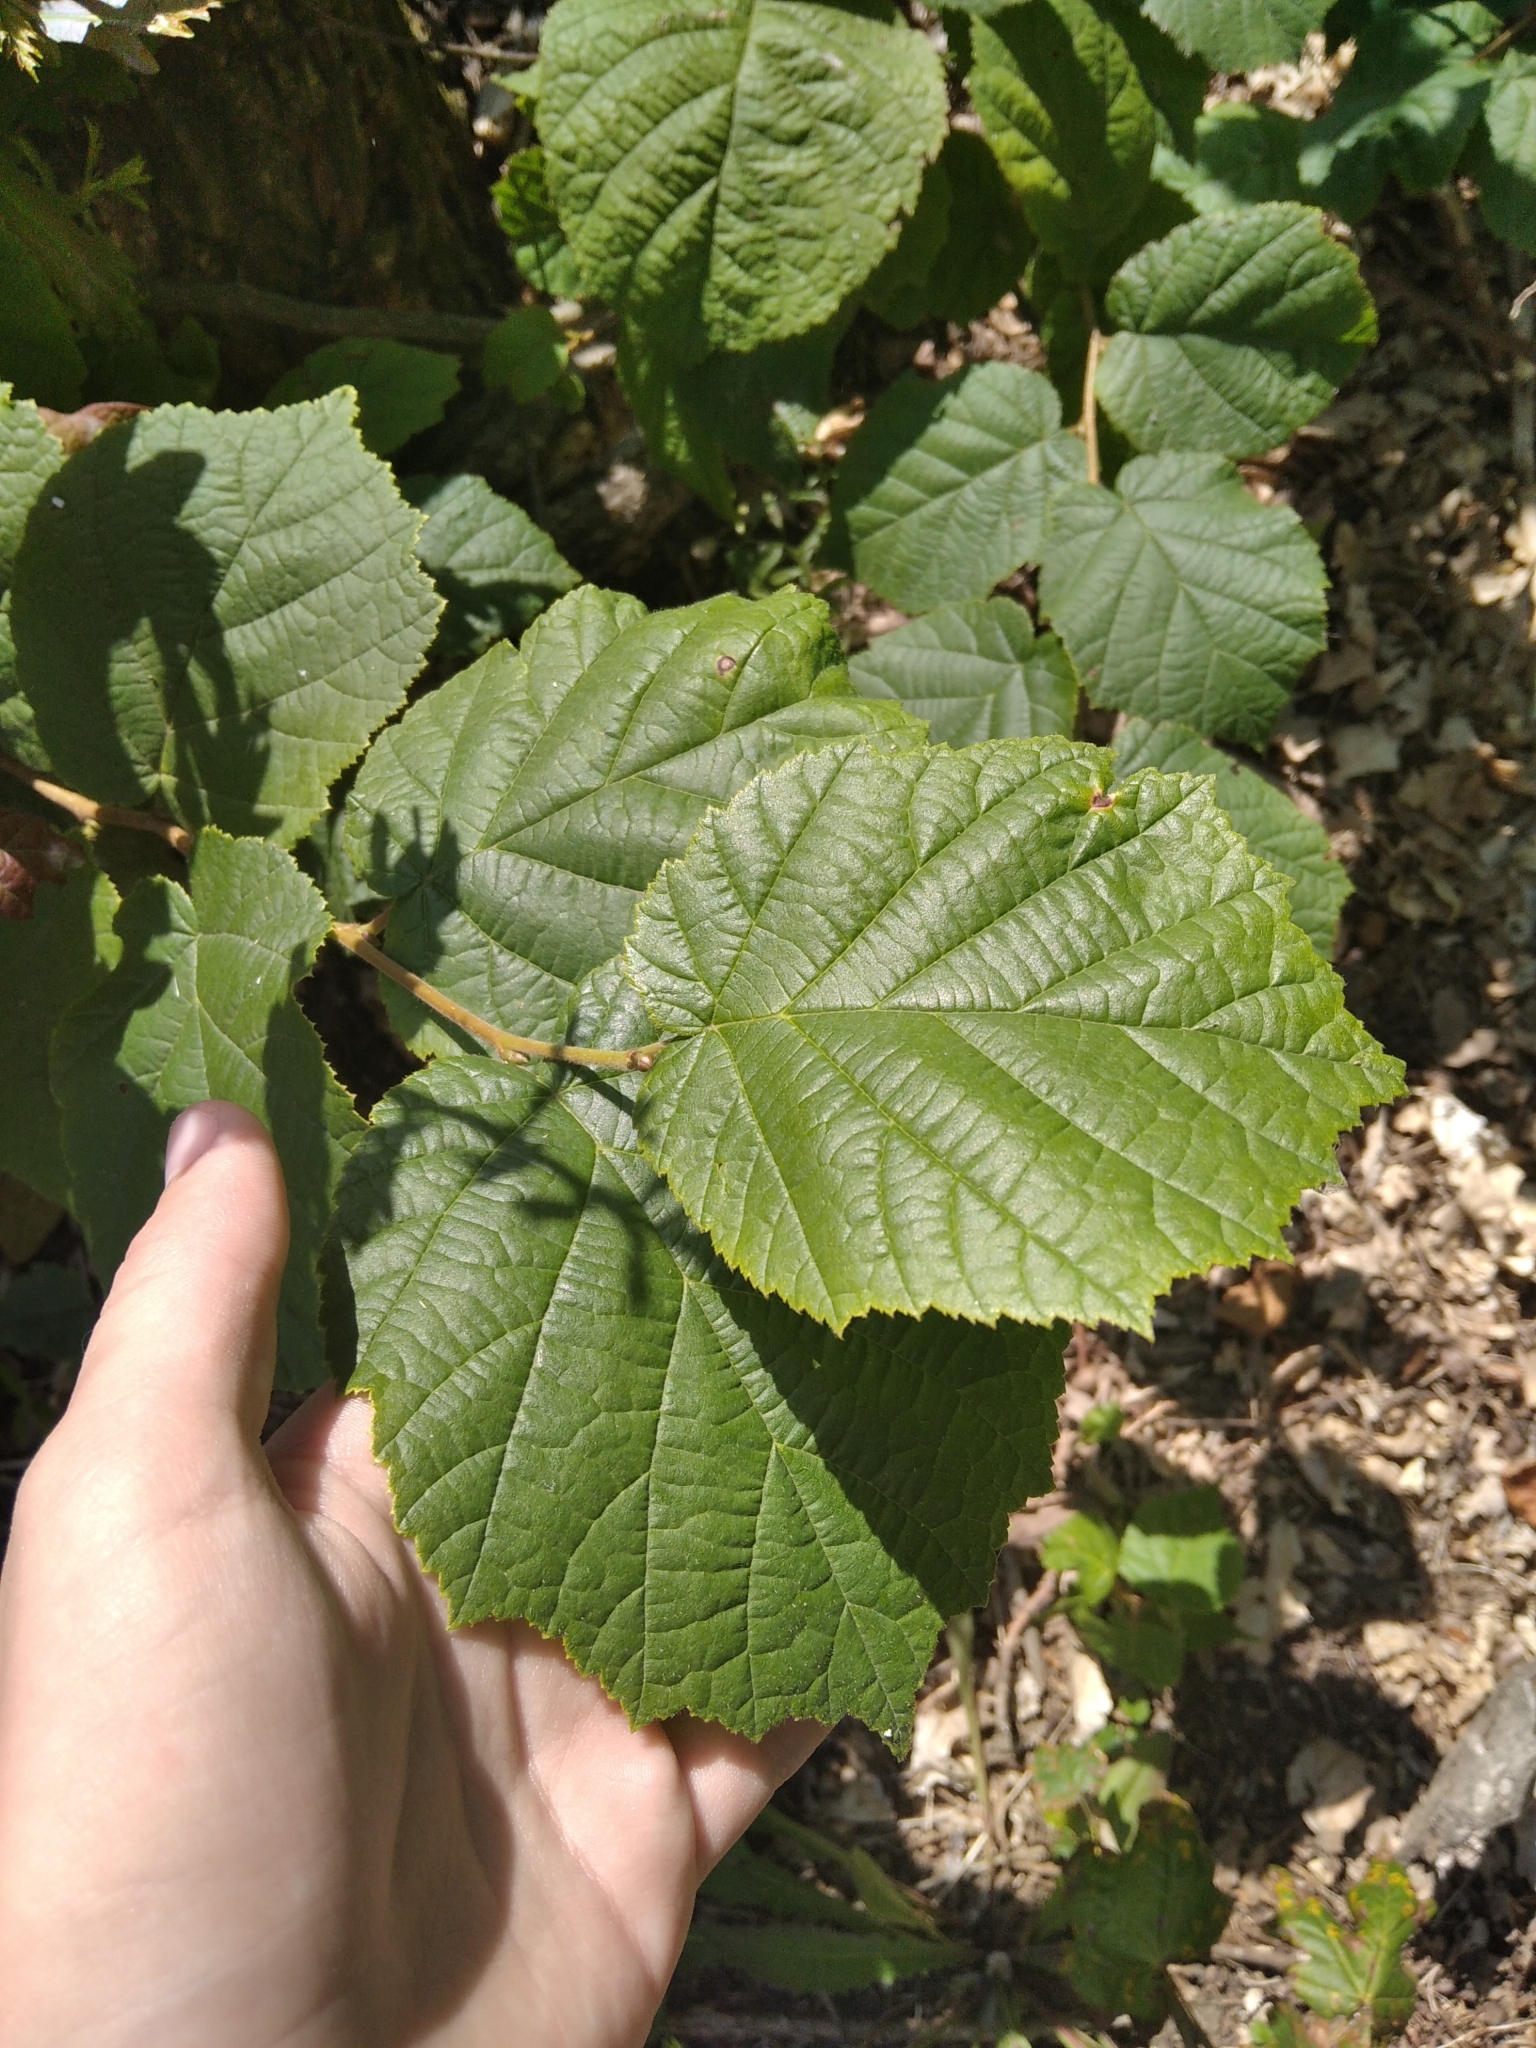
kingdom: Plantae
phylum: Tracheophyta
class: Magnoliopsida
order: Fagales
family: Betulaceae
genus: Corylus
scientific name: Corylus avellana
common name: European hazel
